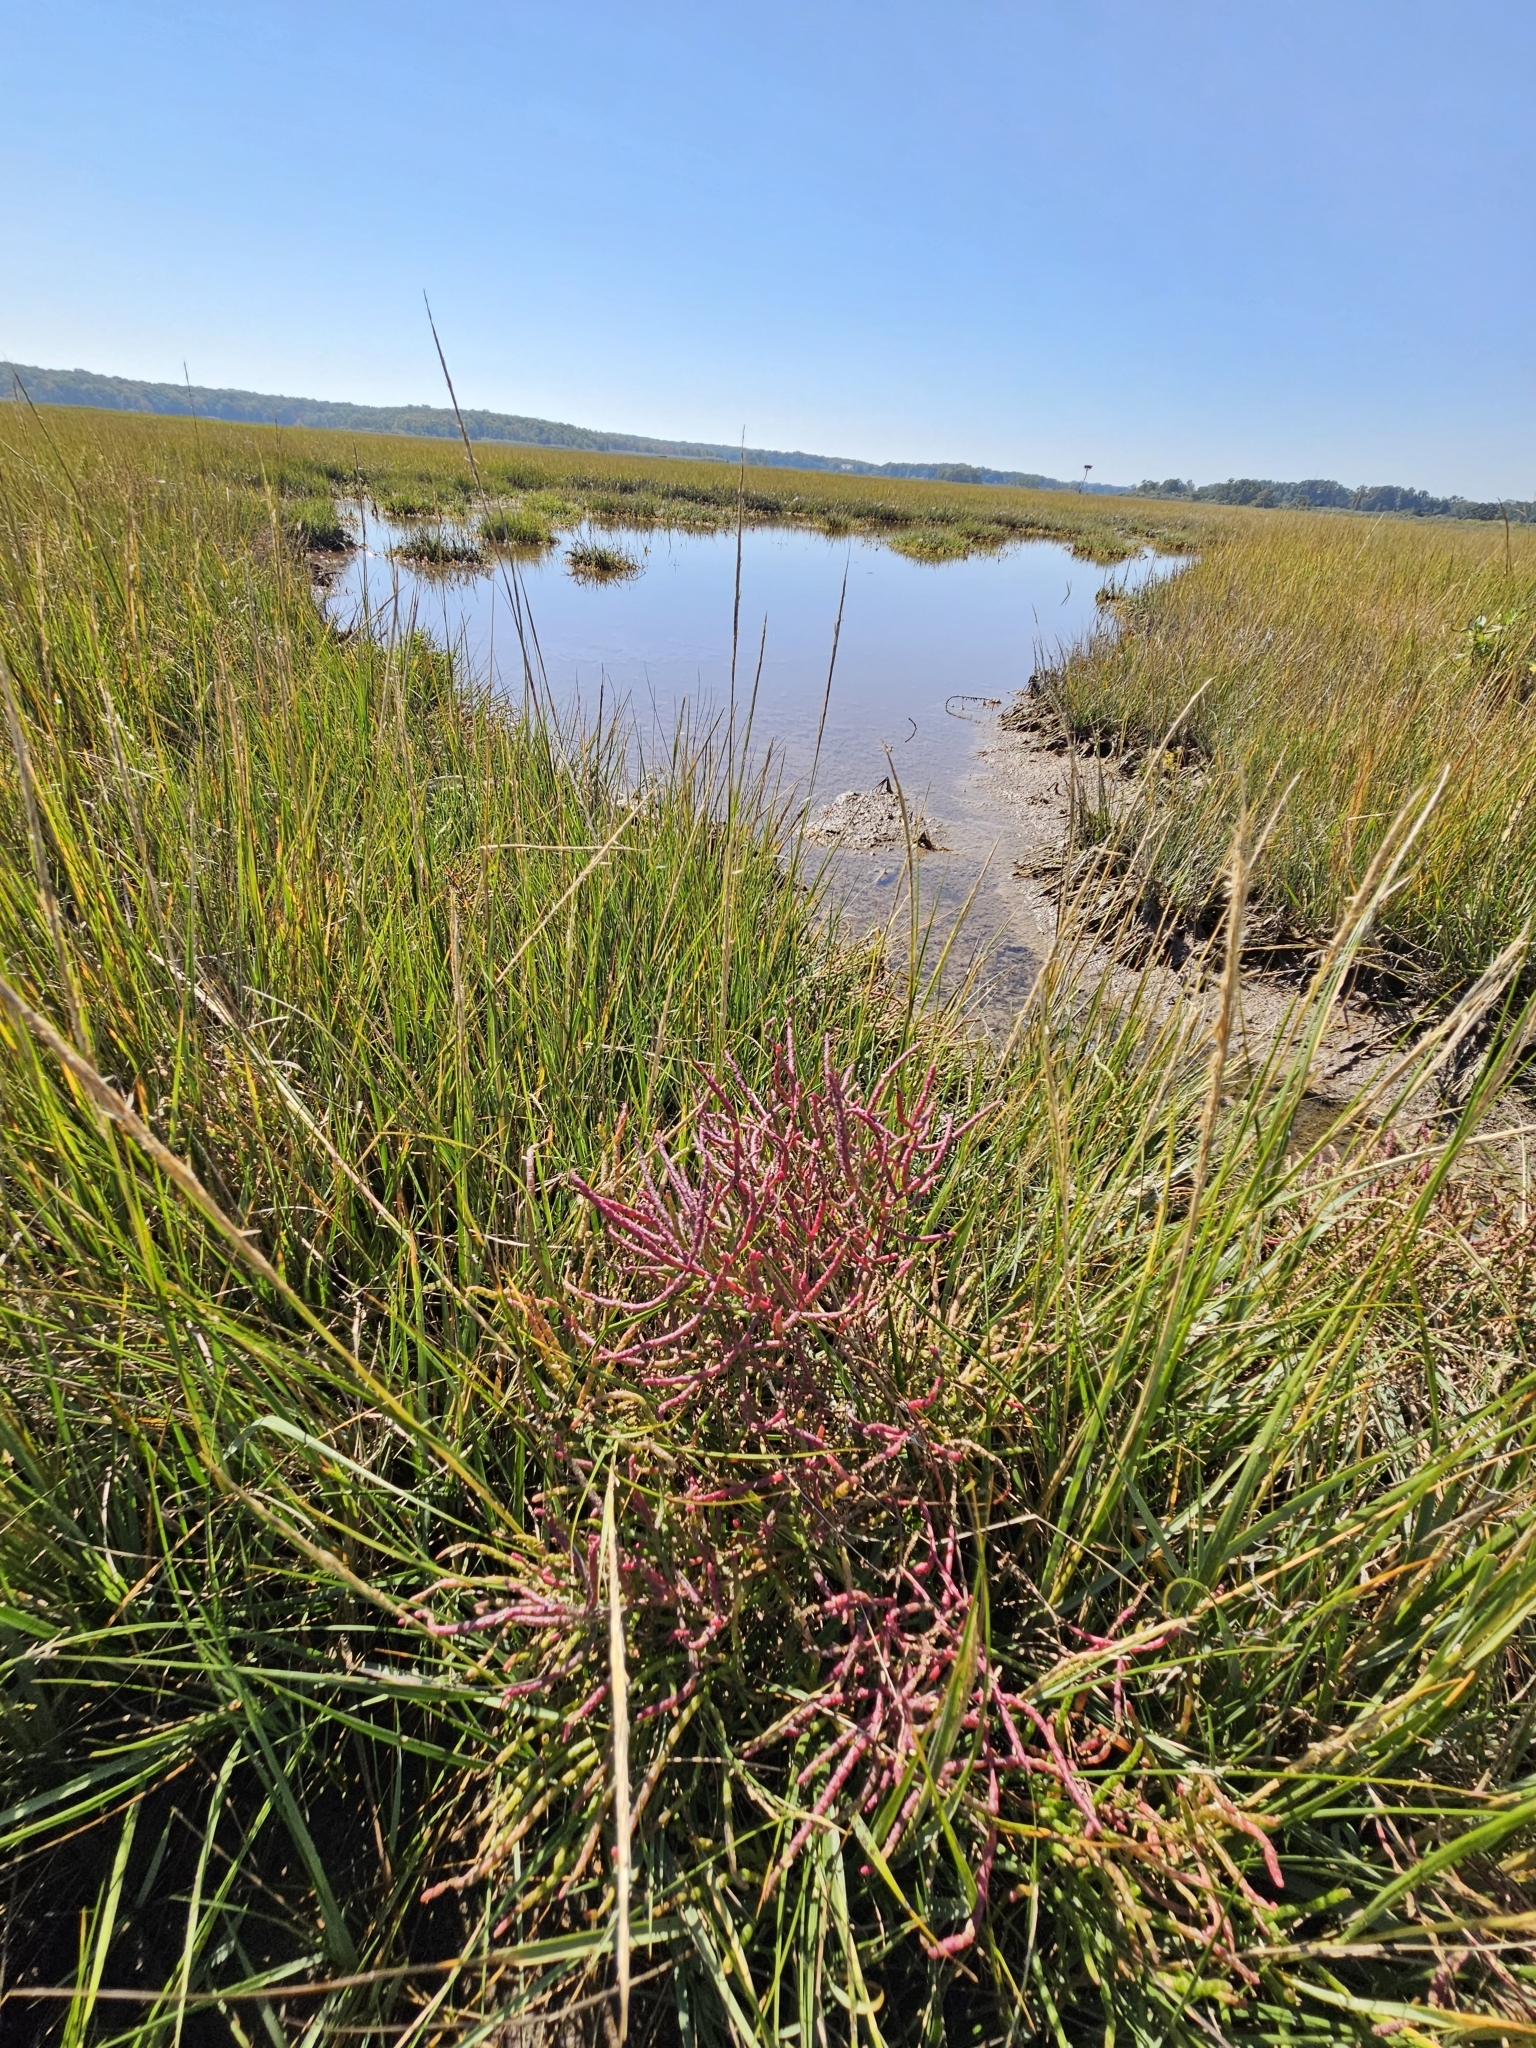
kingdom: Plantae
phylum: Tracheophyta
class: Magnoliopsida
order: Caryophyllales
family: Amaranthaceae
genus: Salicornia
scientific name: Salicornia virginica
